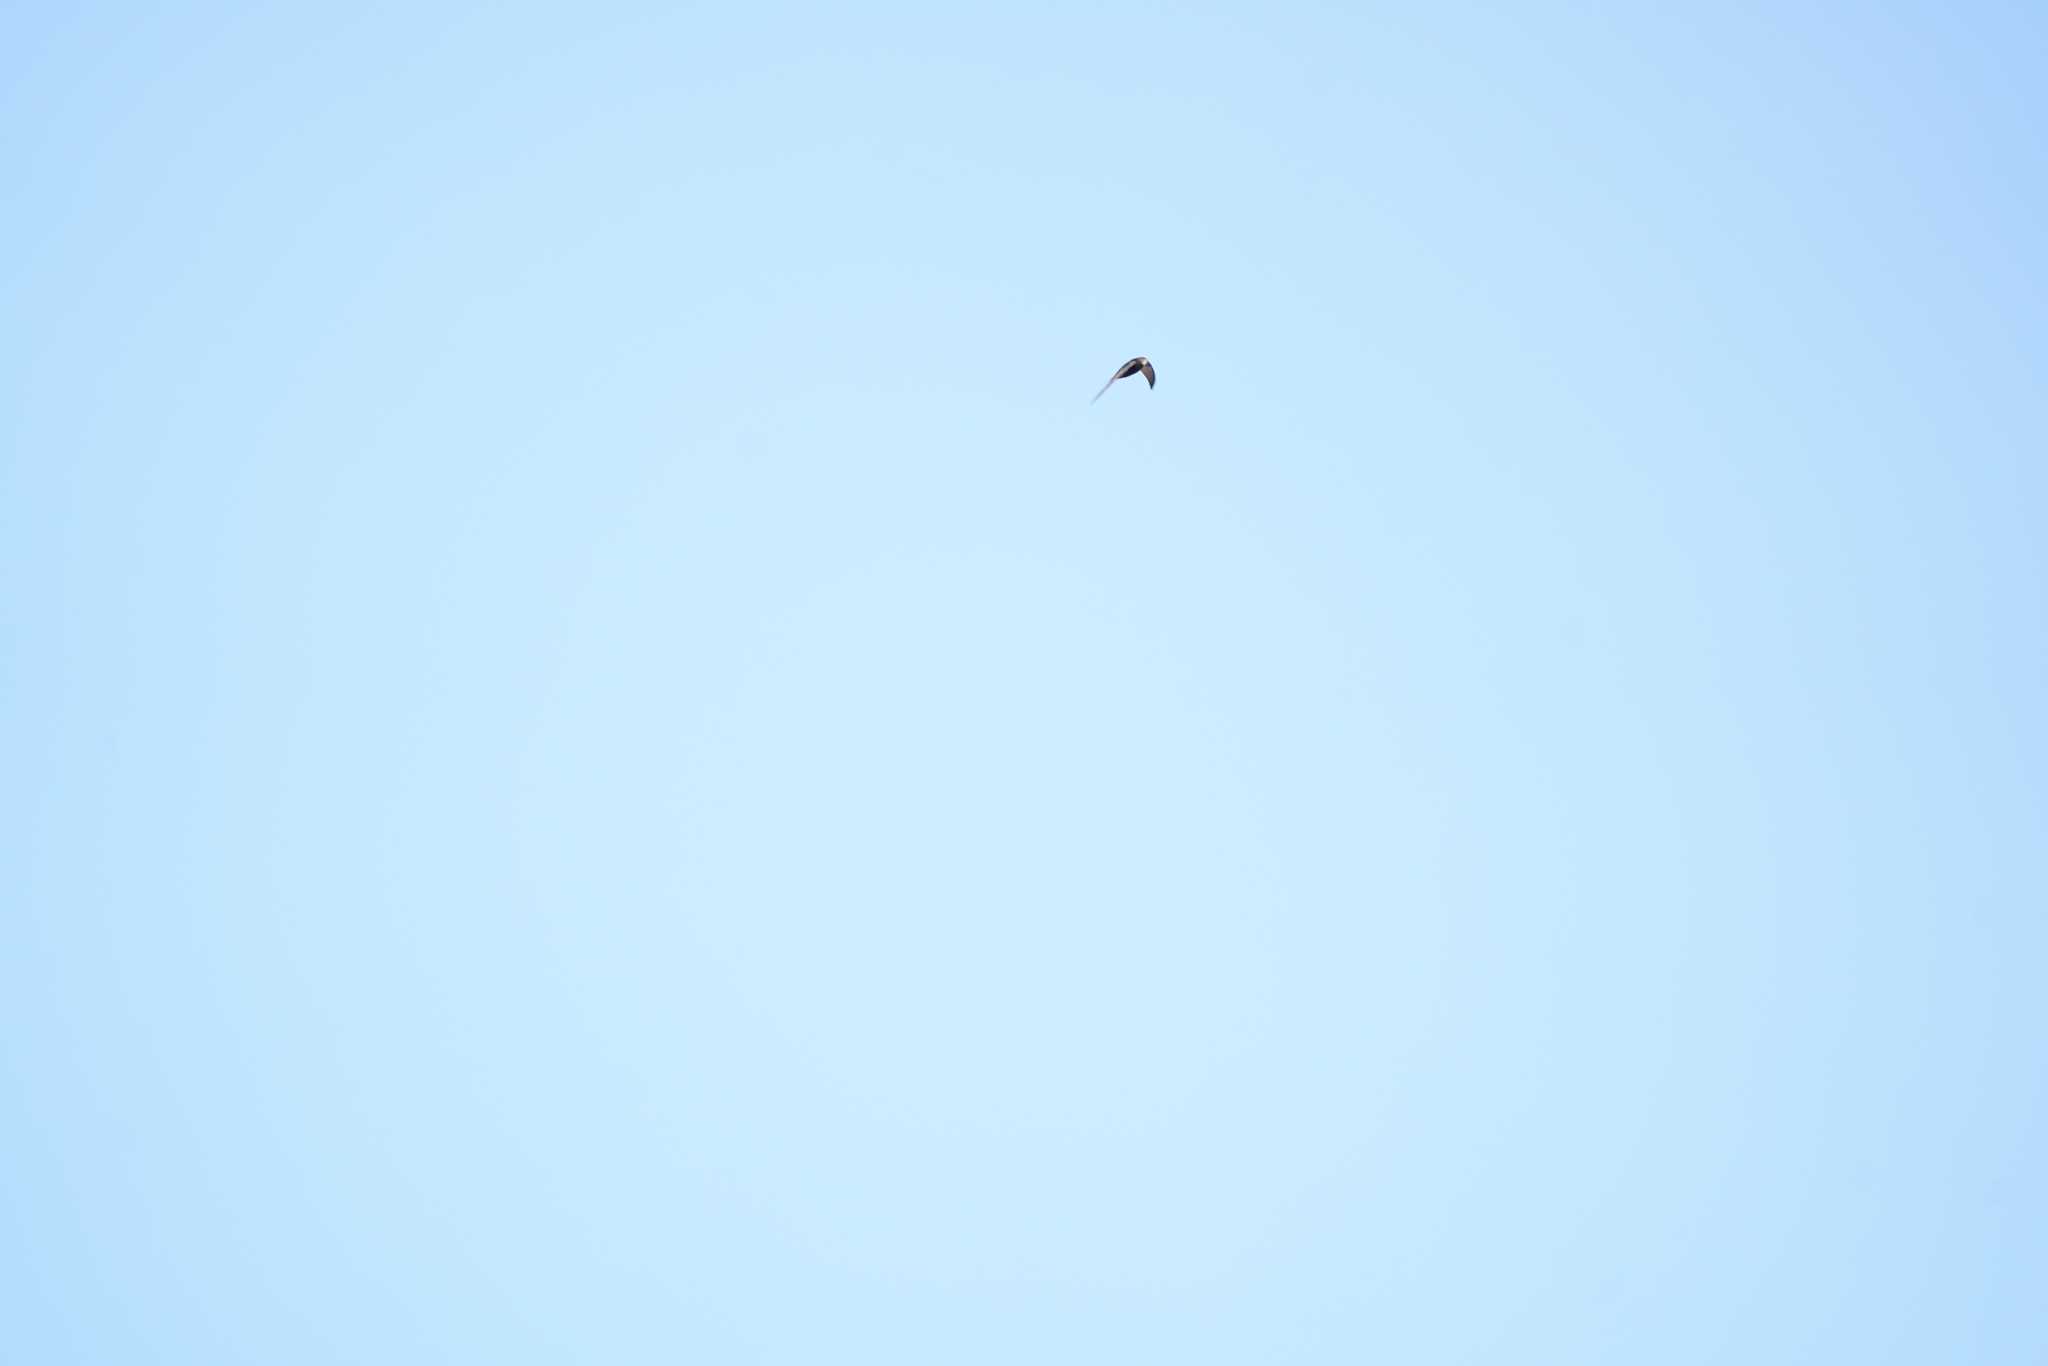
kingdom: Animalia
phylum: Chordata
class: Aves
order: Apodiformes
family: Apodidae
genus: Apus
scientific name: Apus apus
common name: Common swift
